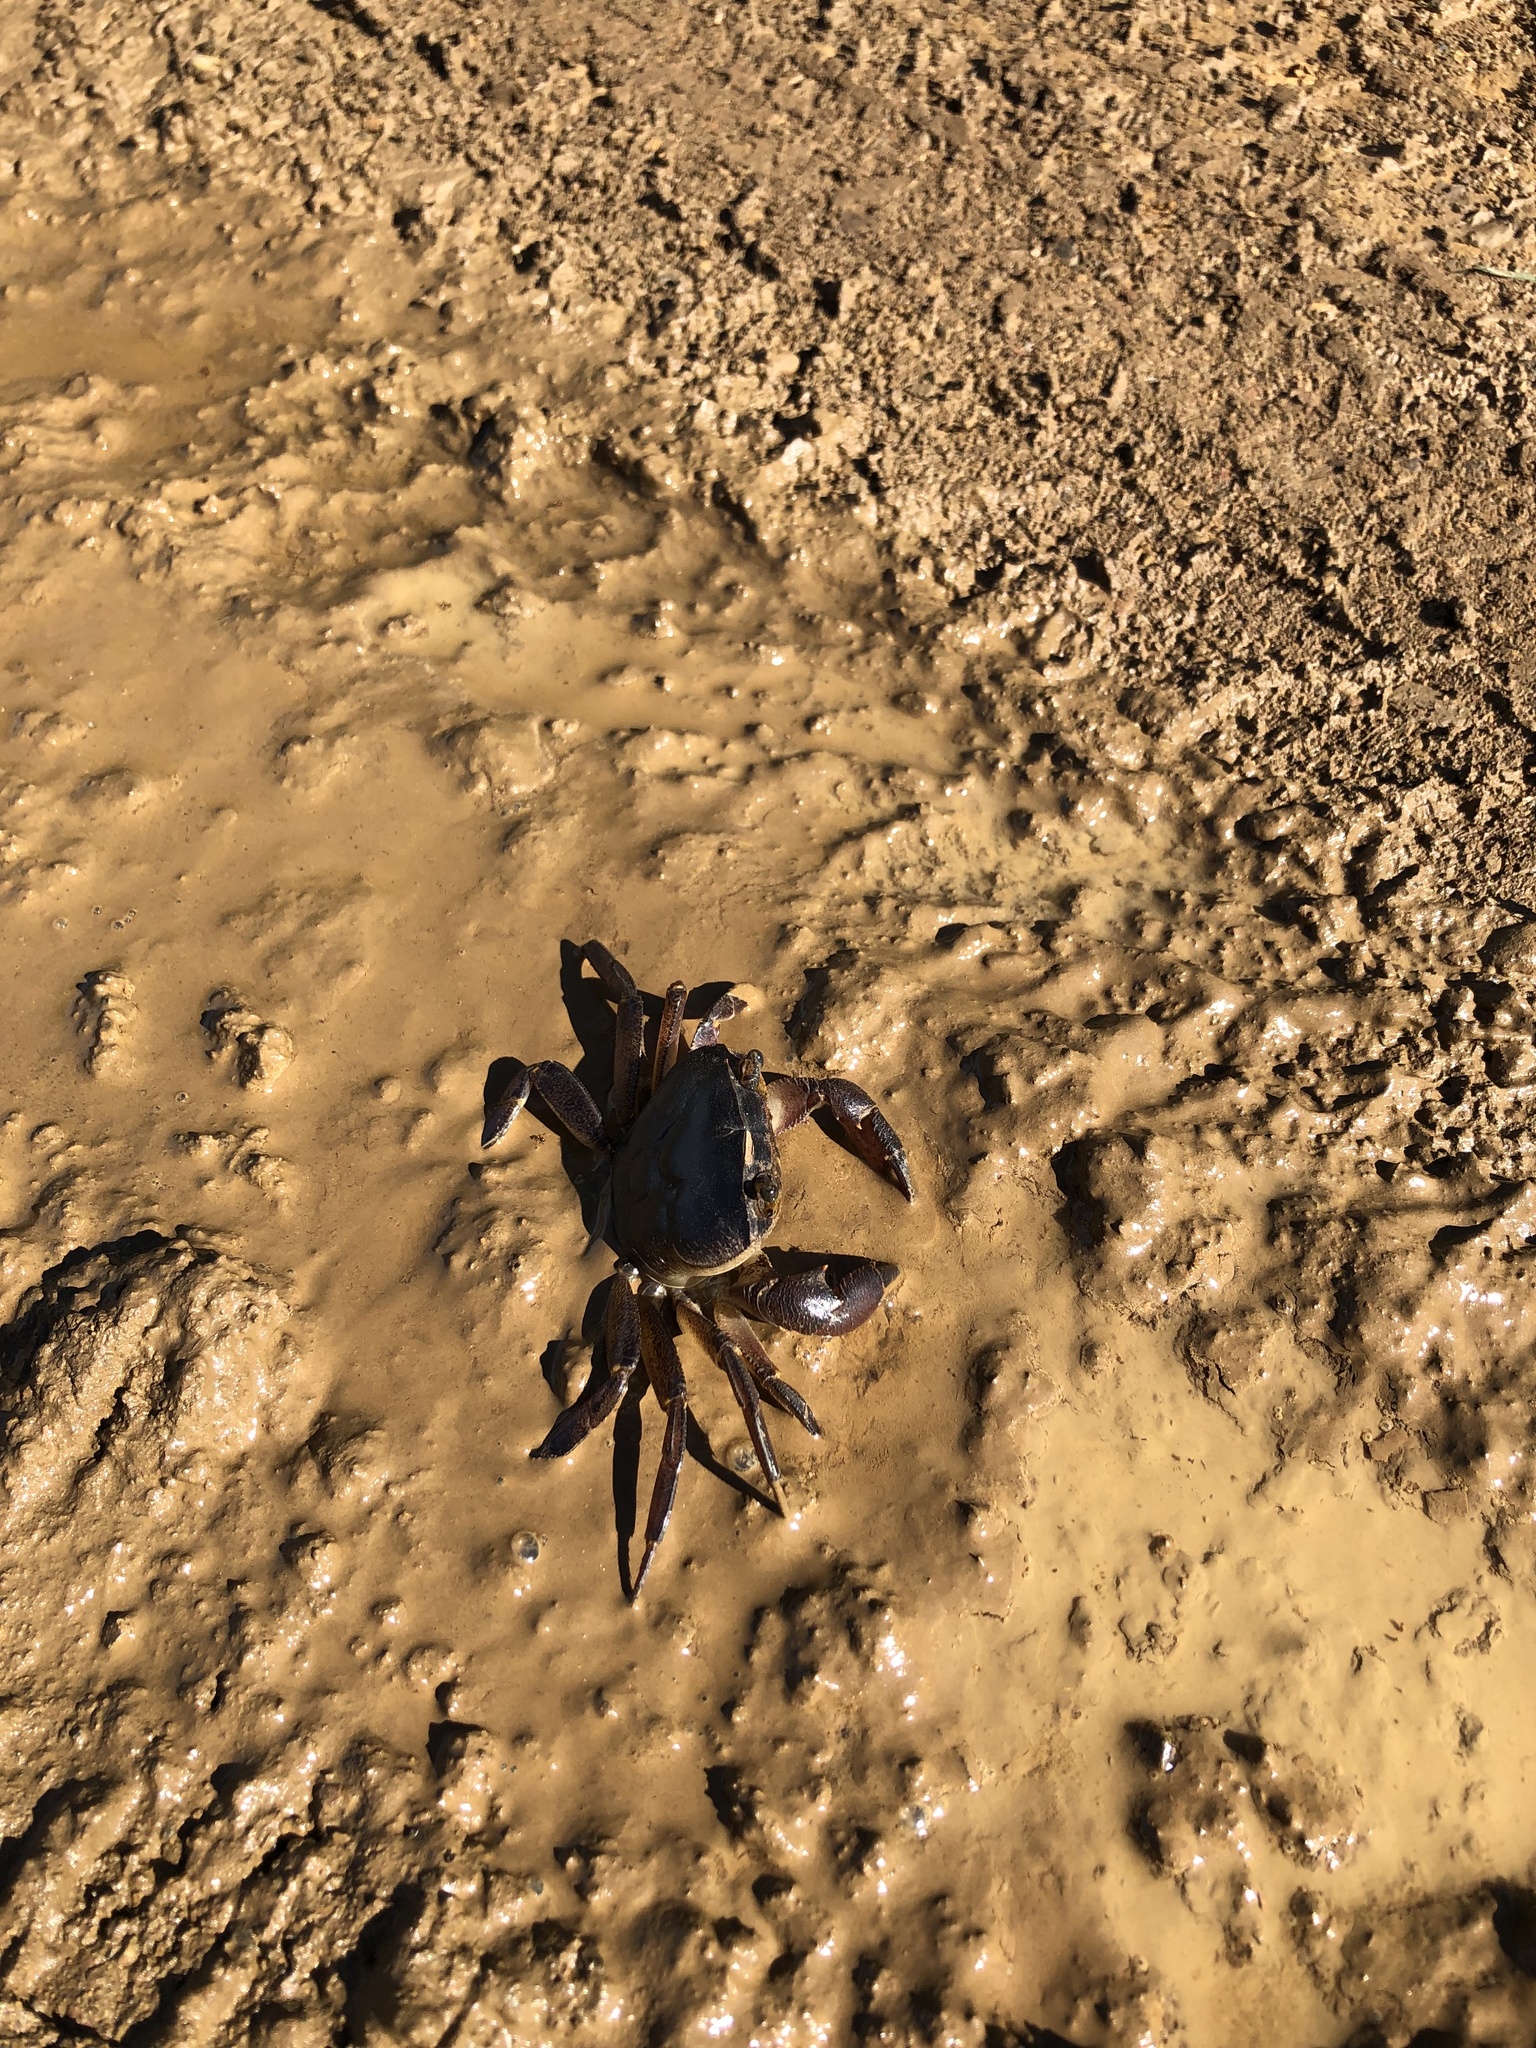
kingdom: Animalia
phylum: Arthropoda
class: Malacostraca
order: Decapoda
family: Potamonautidae
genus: Potamonautes
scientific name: Potamonautes sidneyi
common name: Natal river crab
